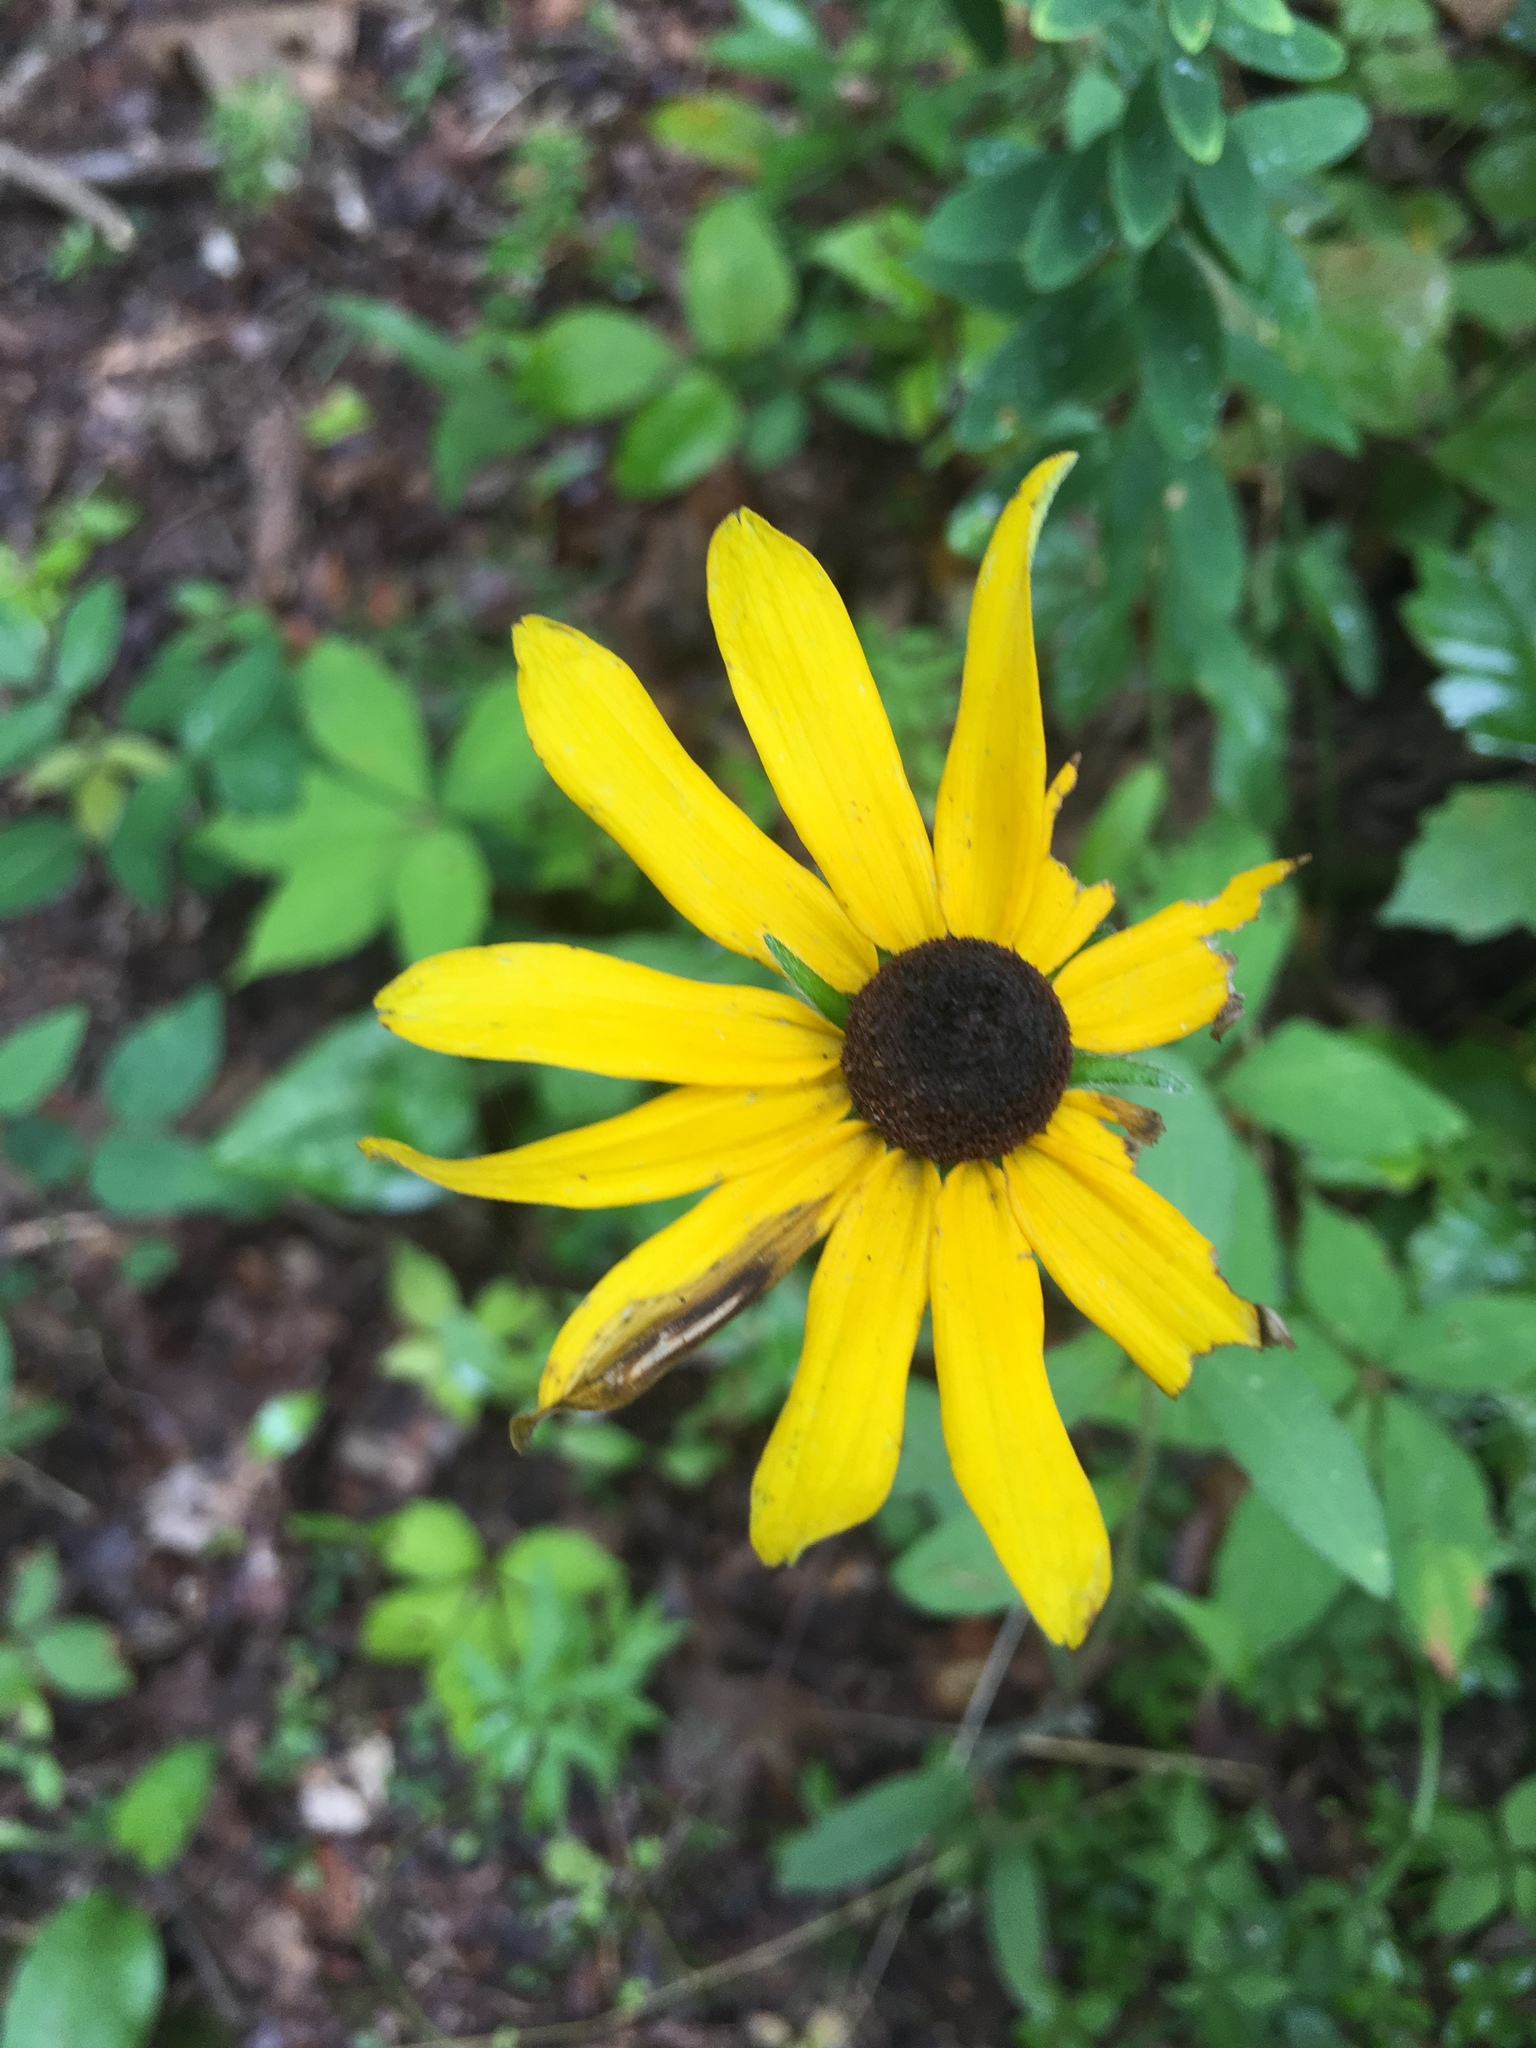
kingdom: Plantae
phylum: Tracheophyta
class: Magnoliopsida
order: Asterales
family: Asteraceae
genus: Rudbeckia
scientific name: Rudbeckia hirta
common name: Black-eyed-susan
